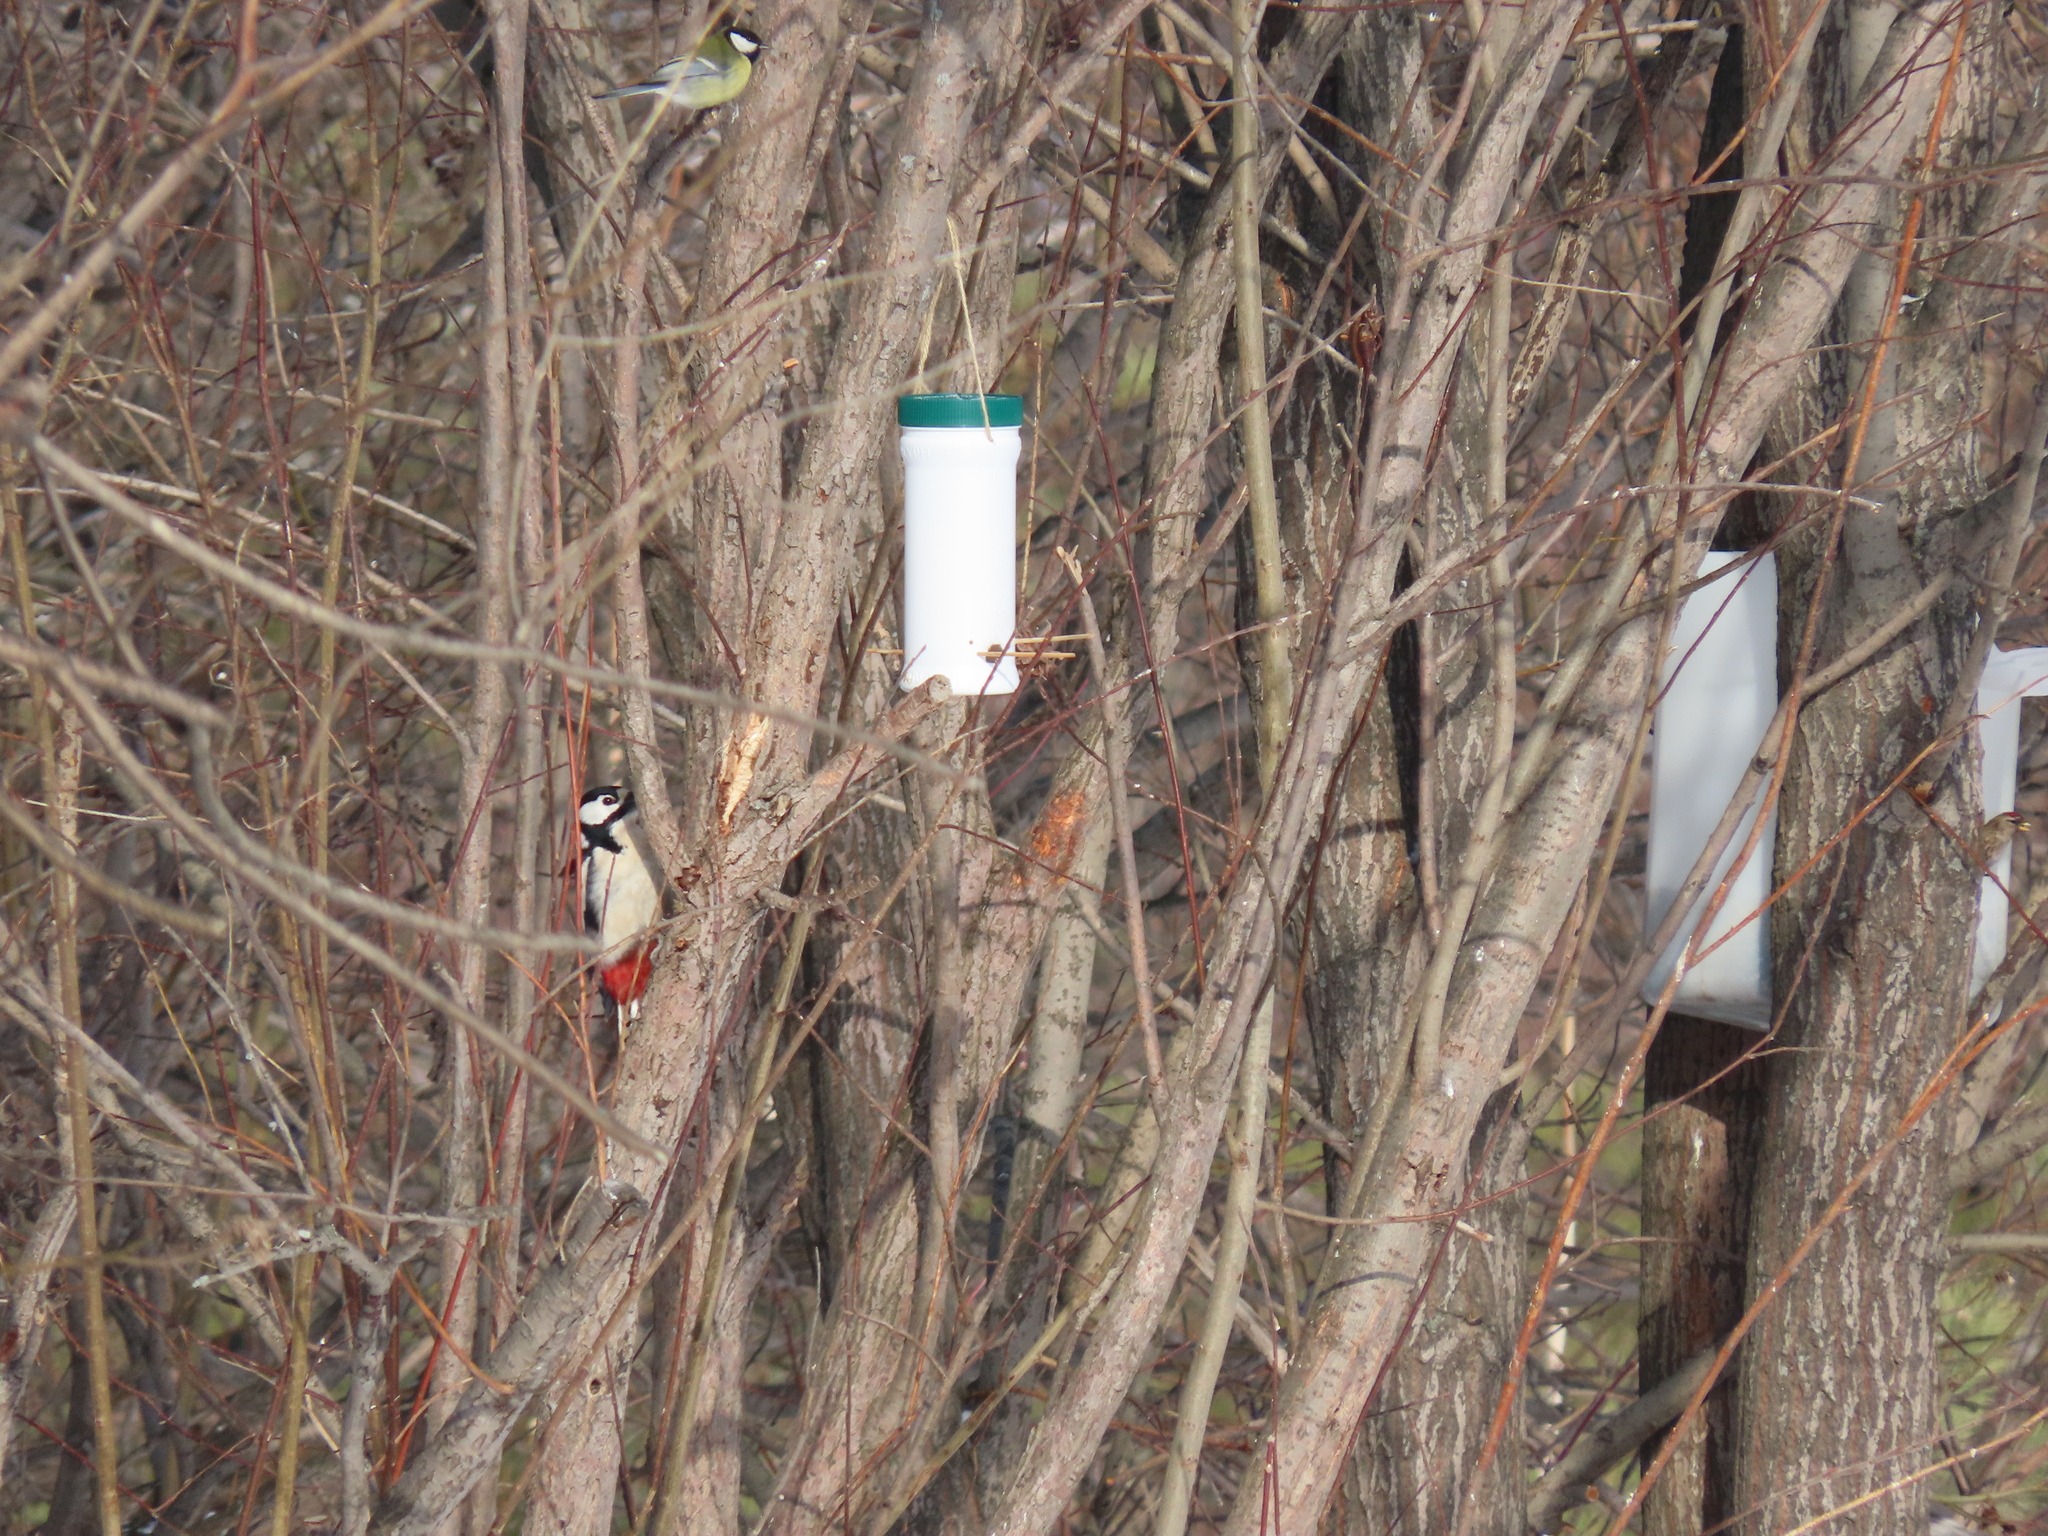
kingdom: Animalia
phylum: Chordata
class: Aves
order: Piciformes
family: Picidae
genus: Dendrocopos
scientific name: Dendrocopos major
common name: Great spotted woodpecker
